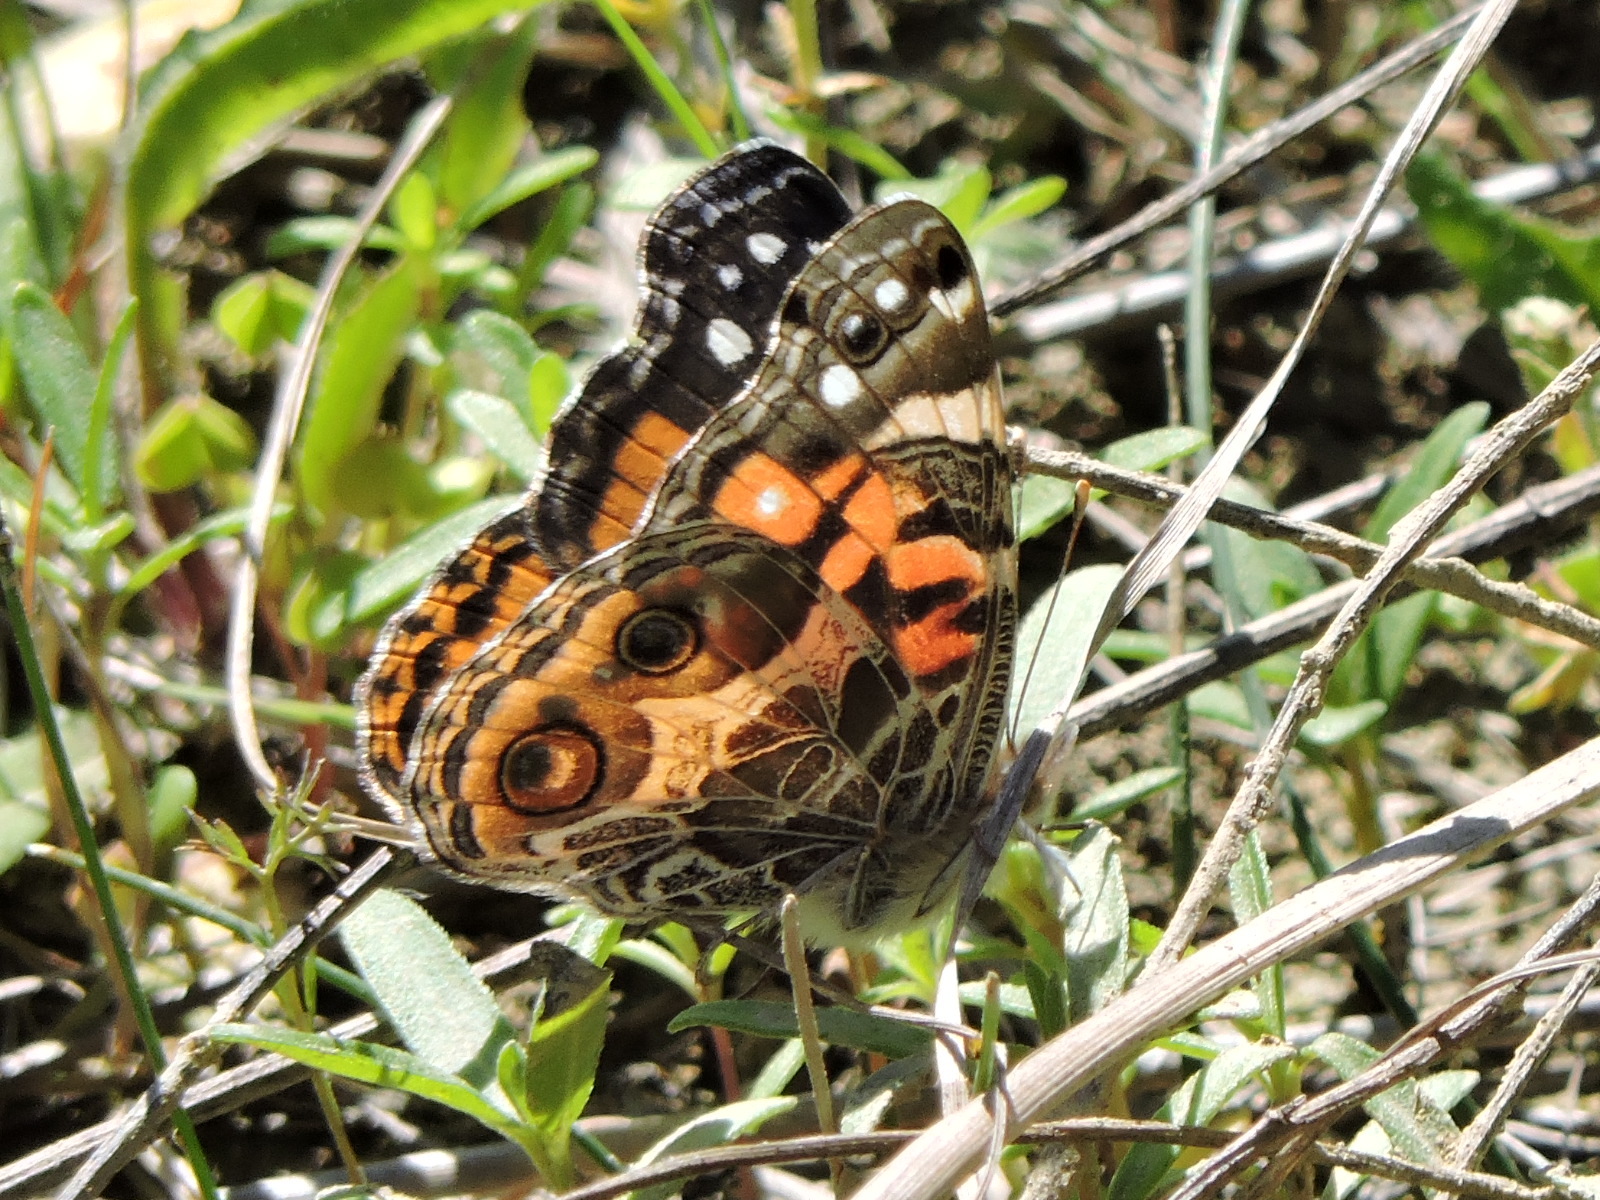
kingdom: Animalia
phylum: Arthropoda
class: Insecta
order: Lepidoptera
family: Nymphalidae
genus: Vanessa
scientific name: Vanessa virginiensis
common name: American lady
